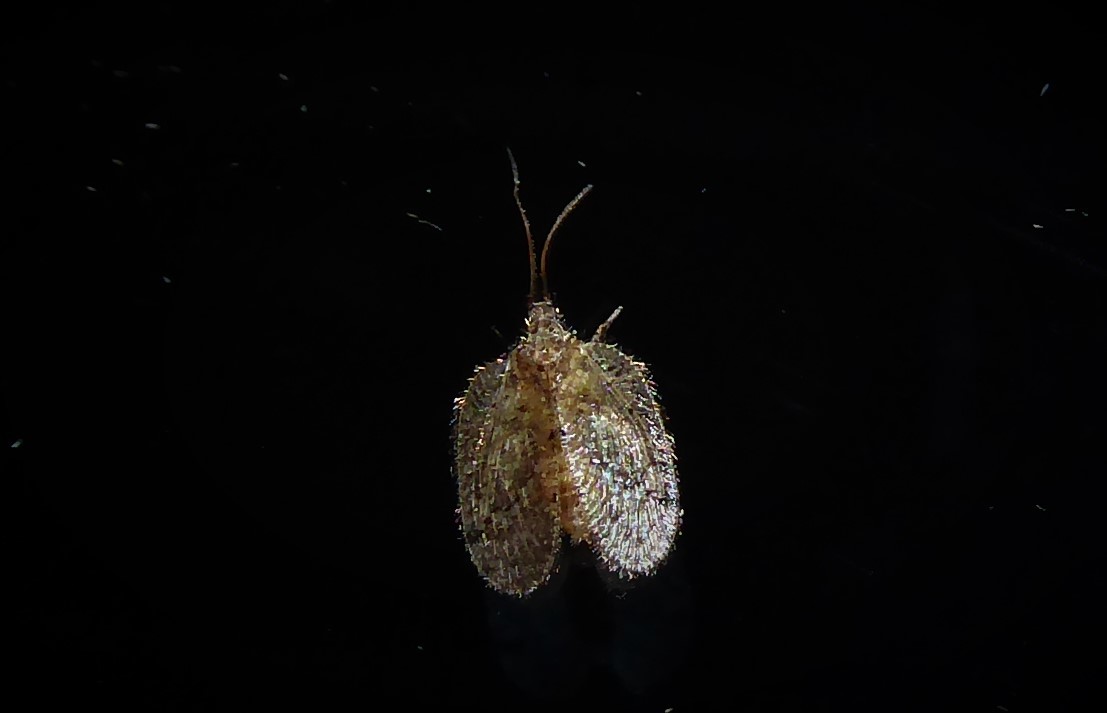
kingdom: Animalia
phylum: Arthropoda
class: Insecta
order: Neuroptera
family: Hemerobiidae
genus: Psectra
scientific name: Psectra nakaharai
